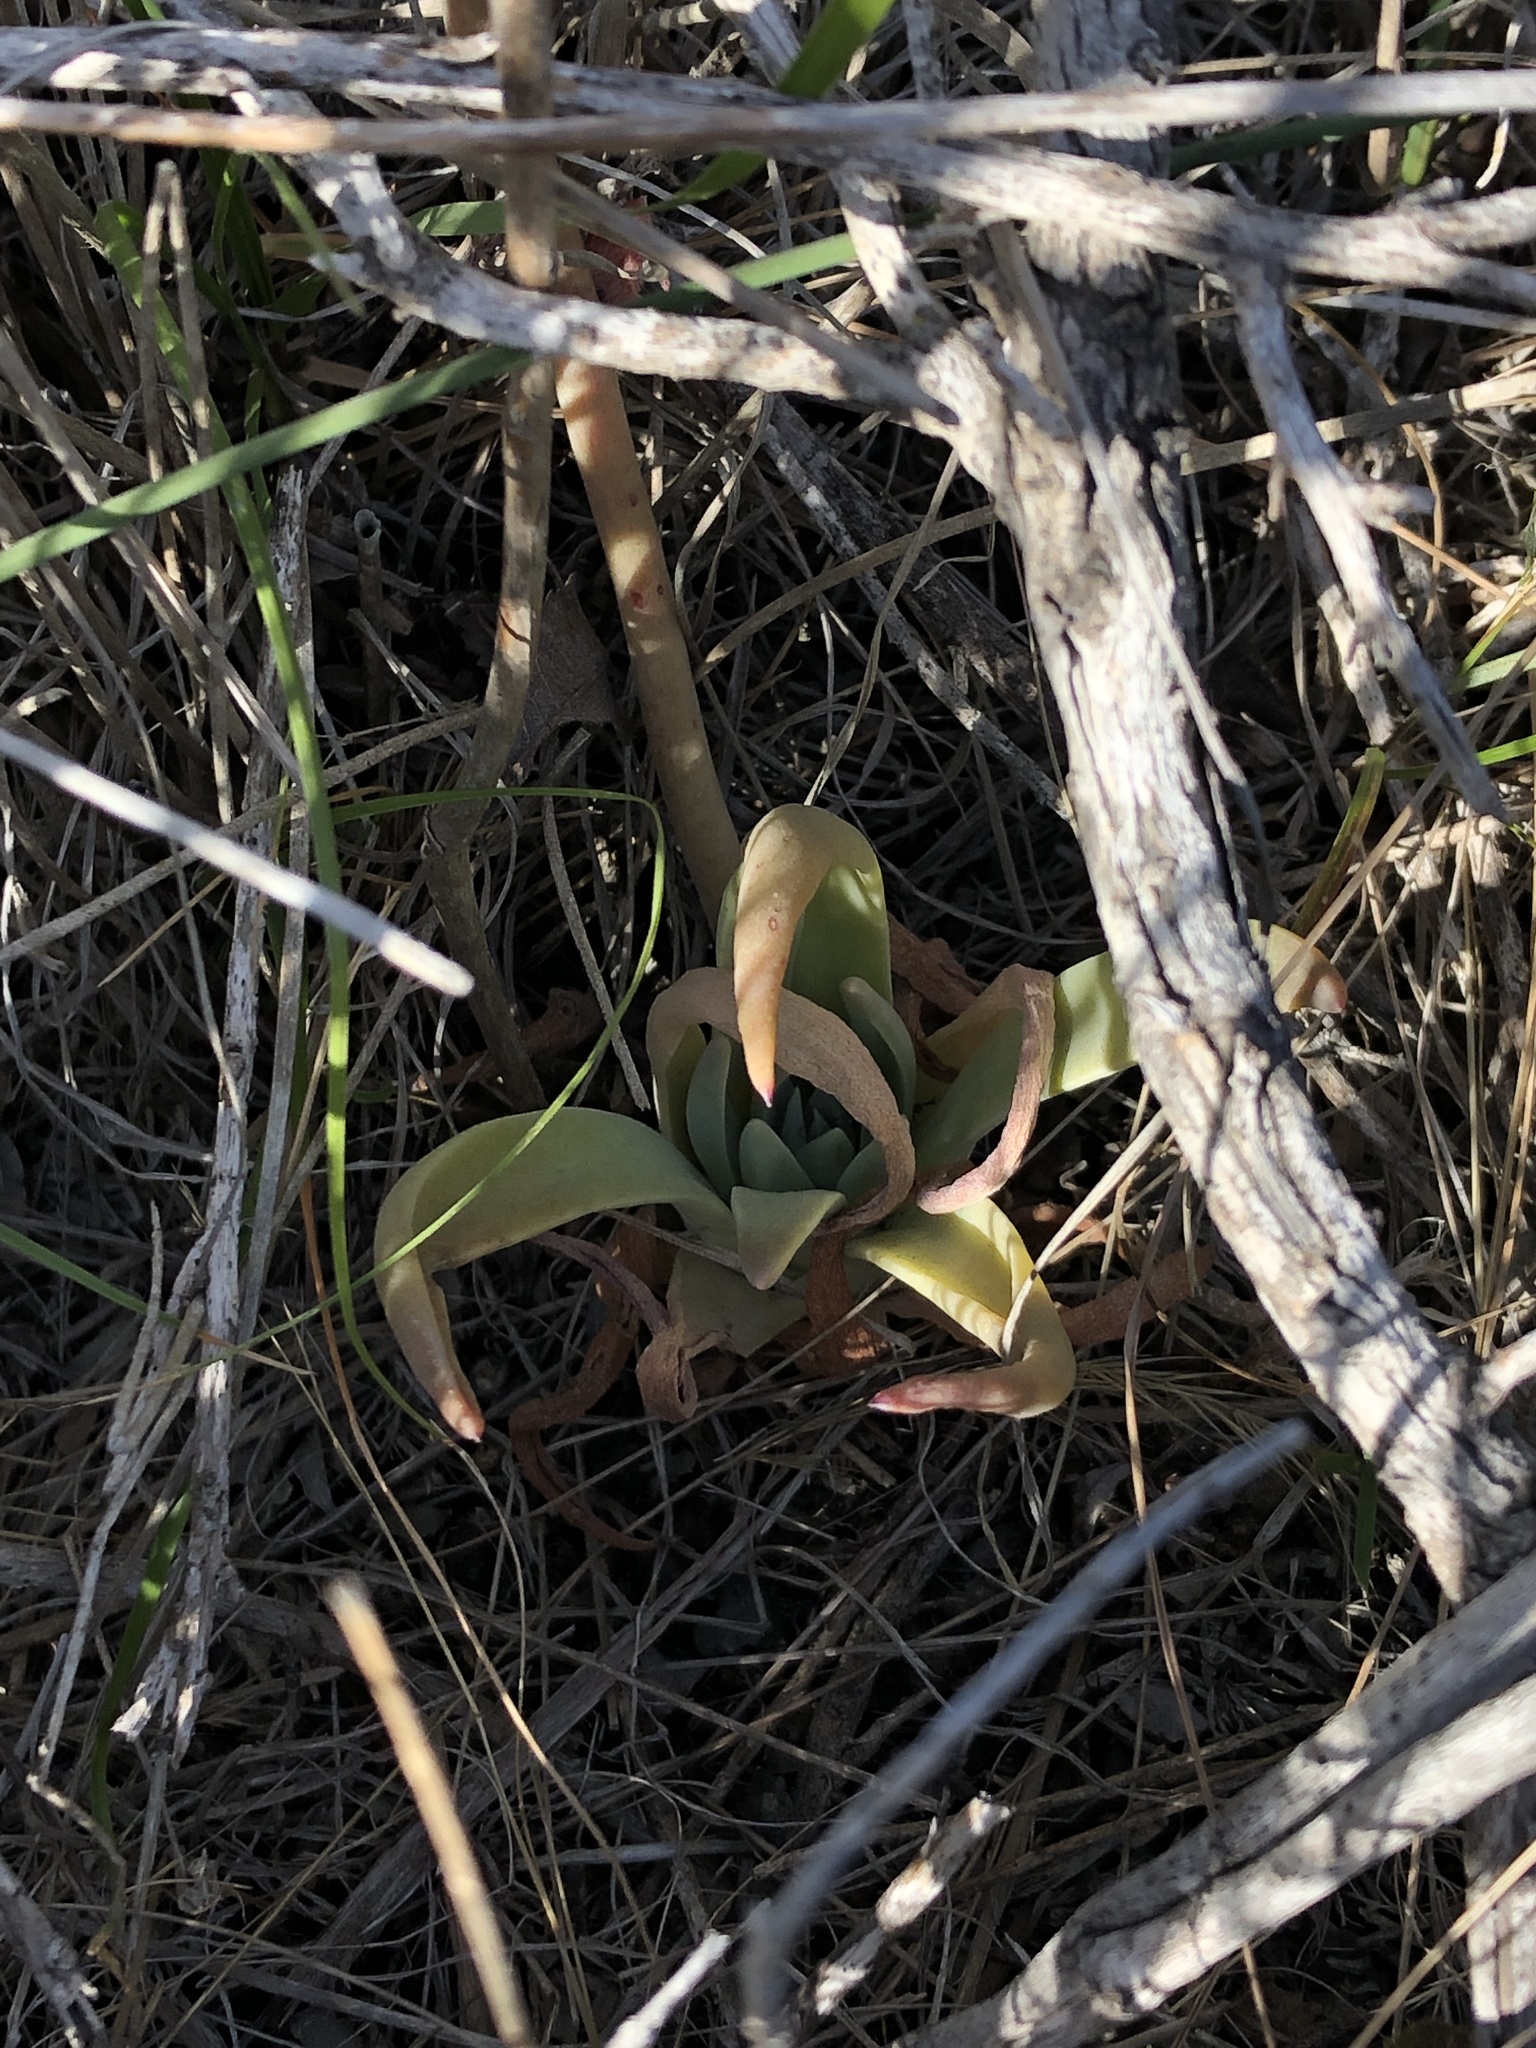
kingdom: Plantae
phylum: Tracheophyta
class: Magnoliopsida
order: Saxifragales
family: Crassulaceae
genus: Dudleya
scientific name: Dudleya lanceolata
